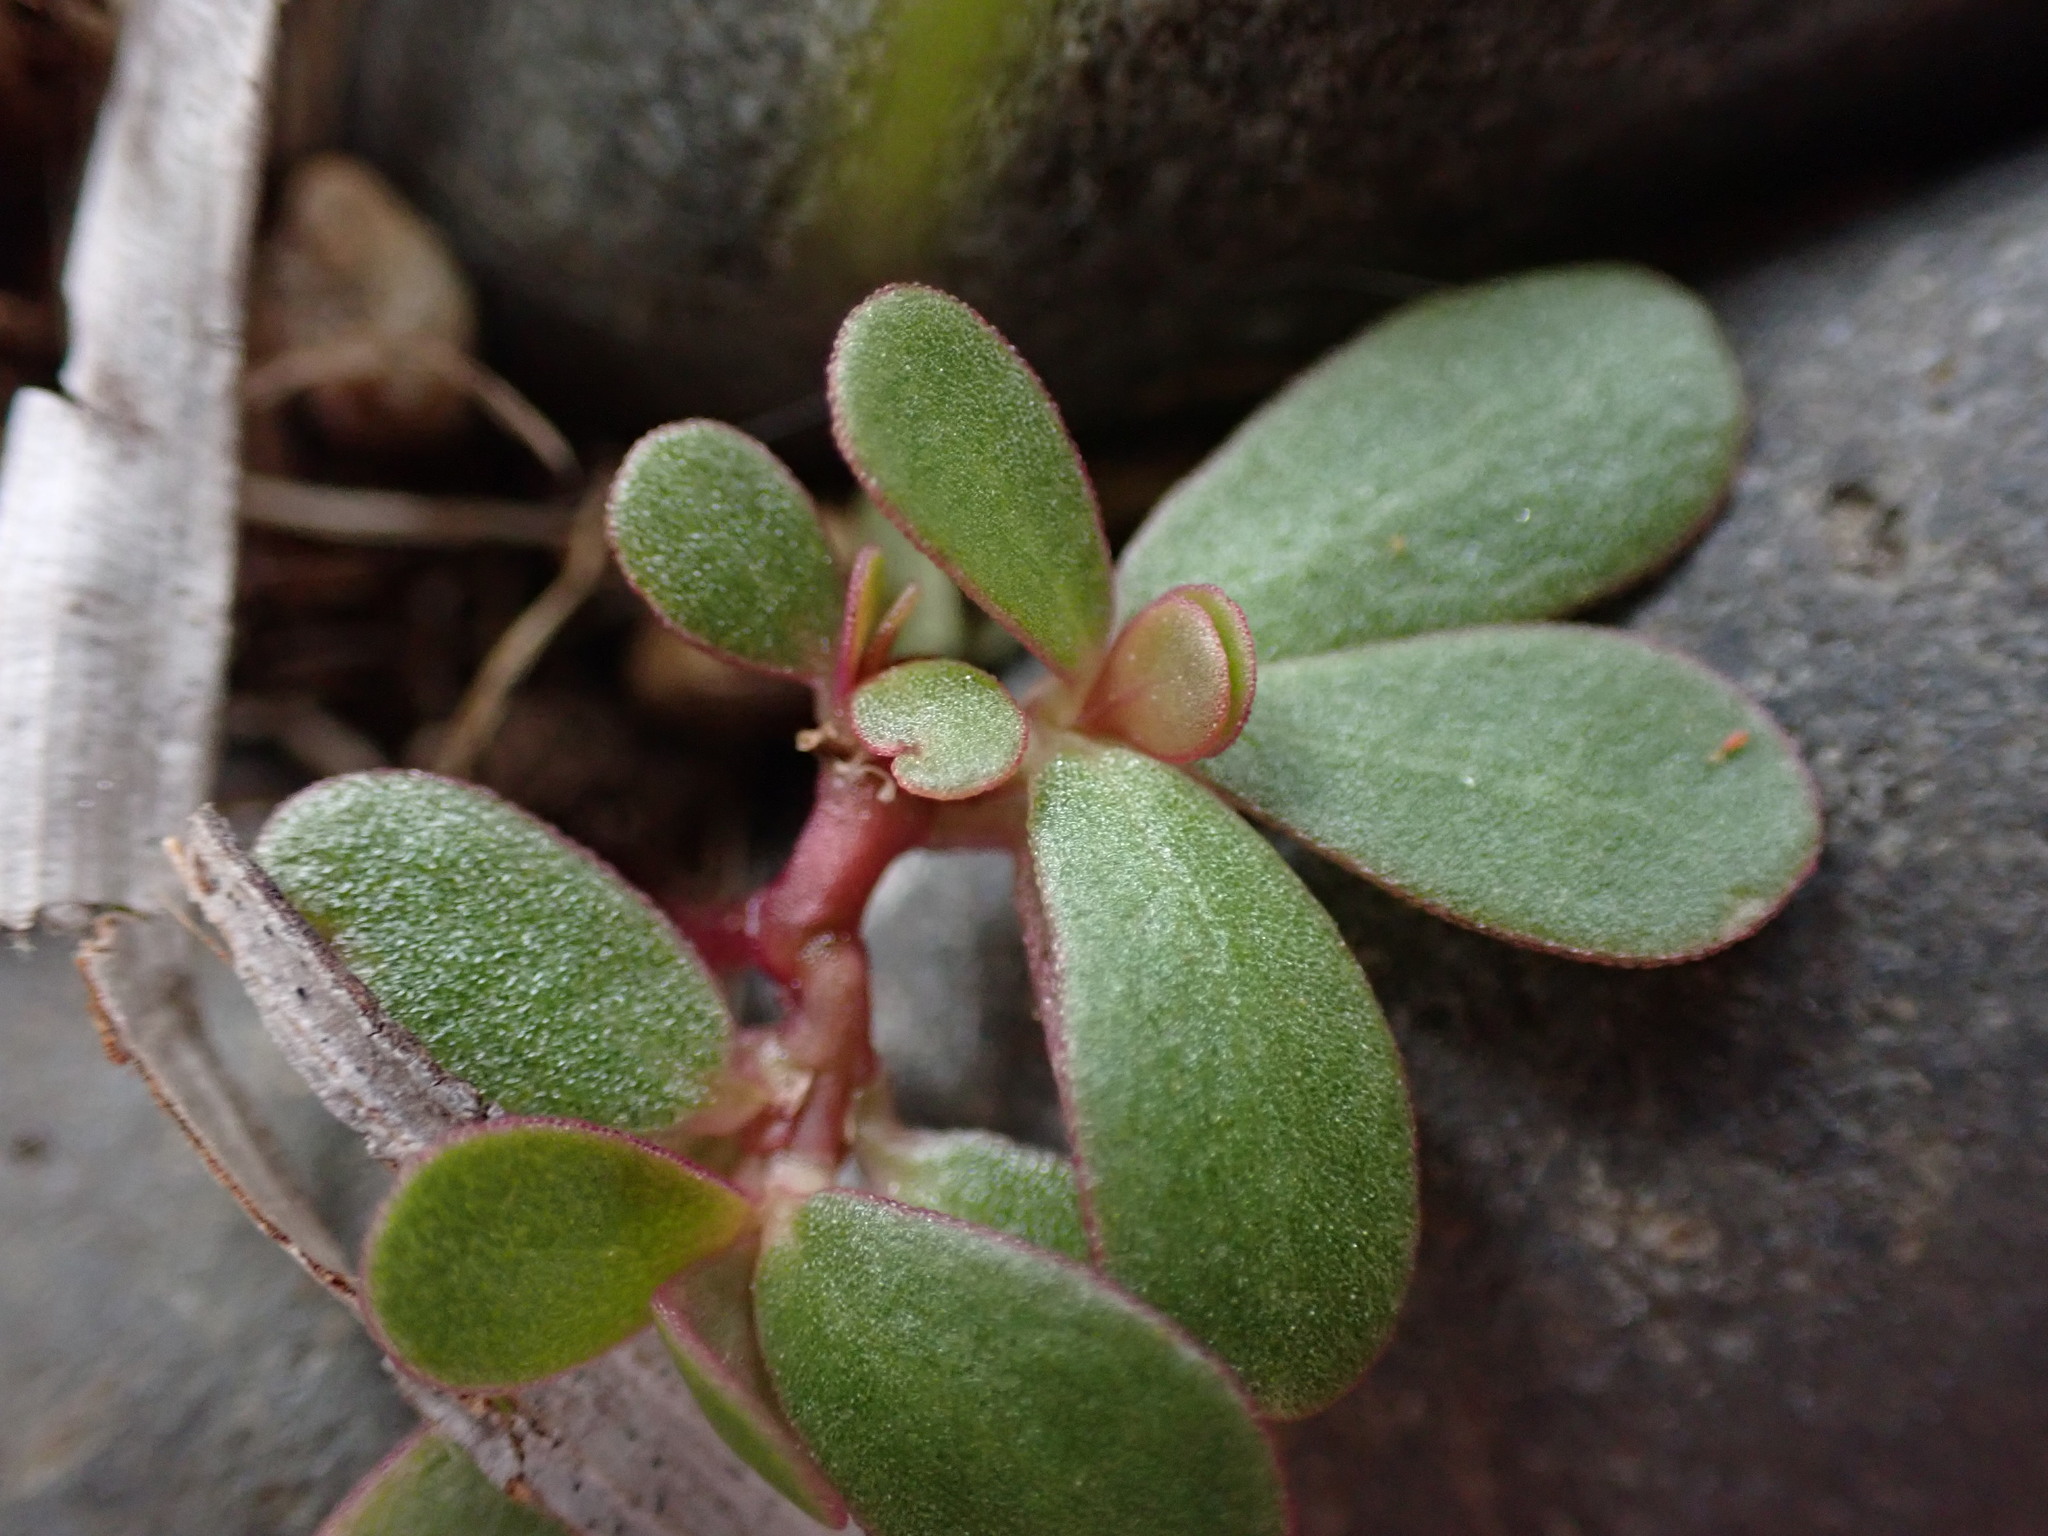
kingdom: Plantae
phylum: Tracheophyta
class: Magnoliopsida
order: Caryophyllales
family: Portulacaceae
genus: Portulaca
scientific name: Portulaca oleracea
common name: Common purslane
